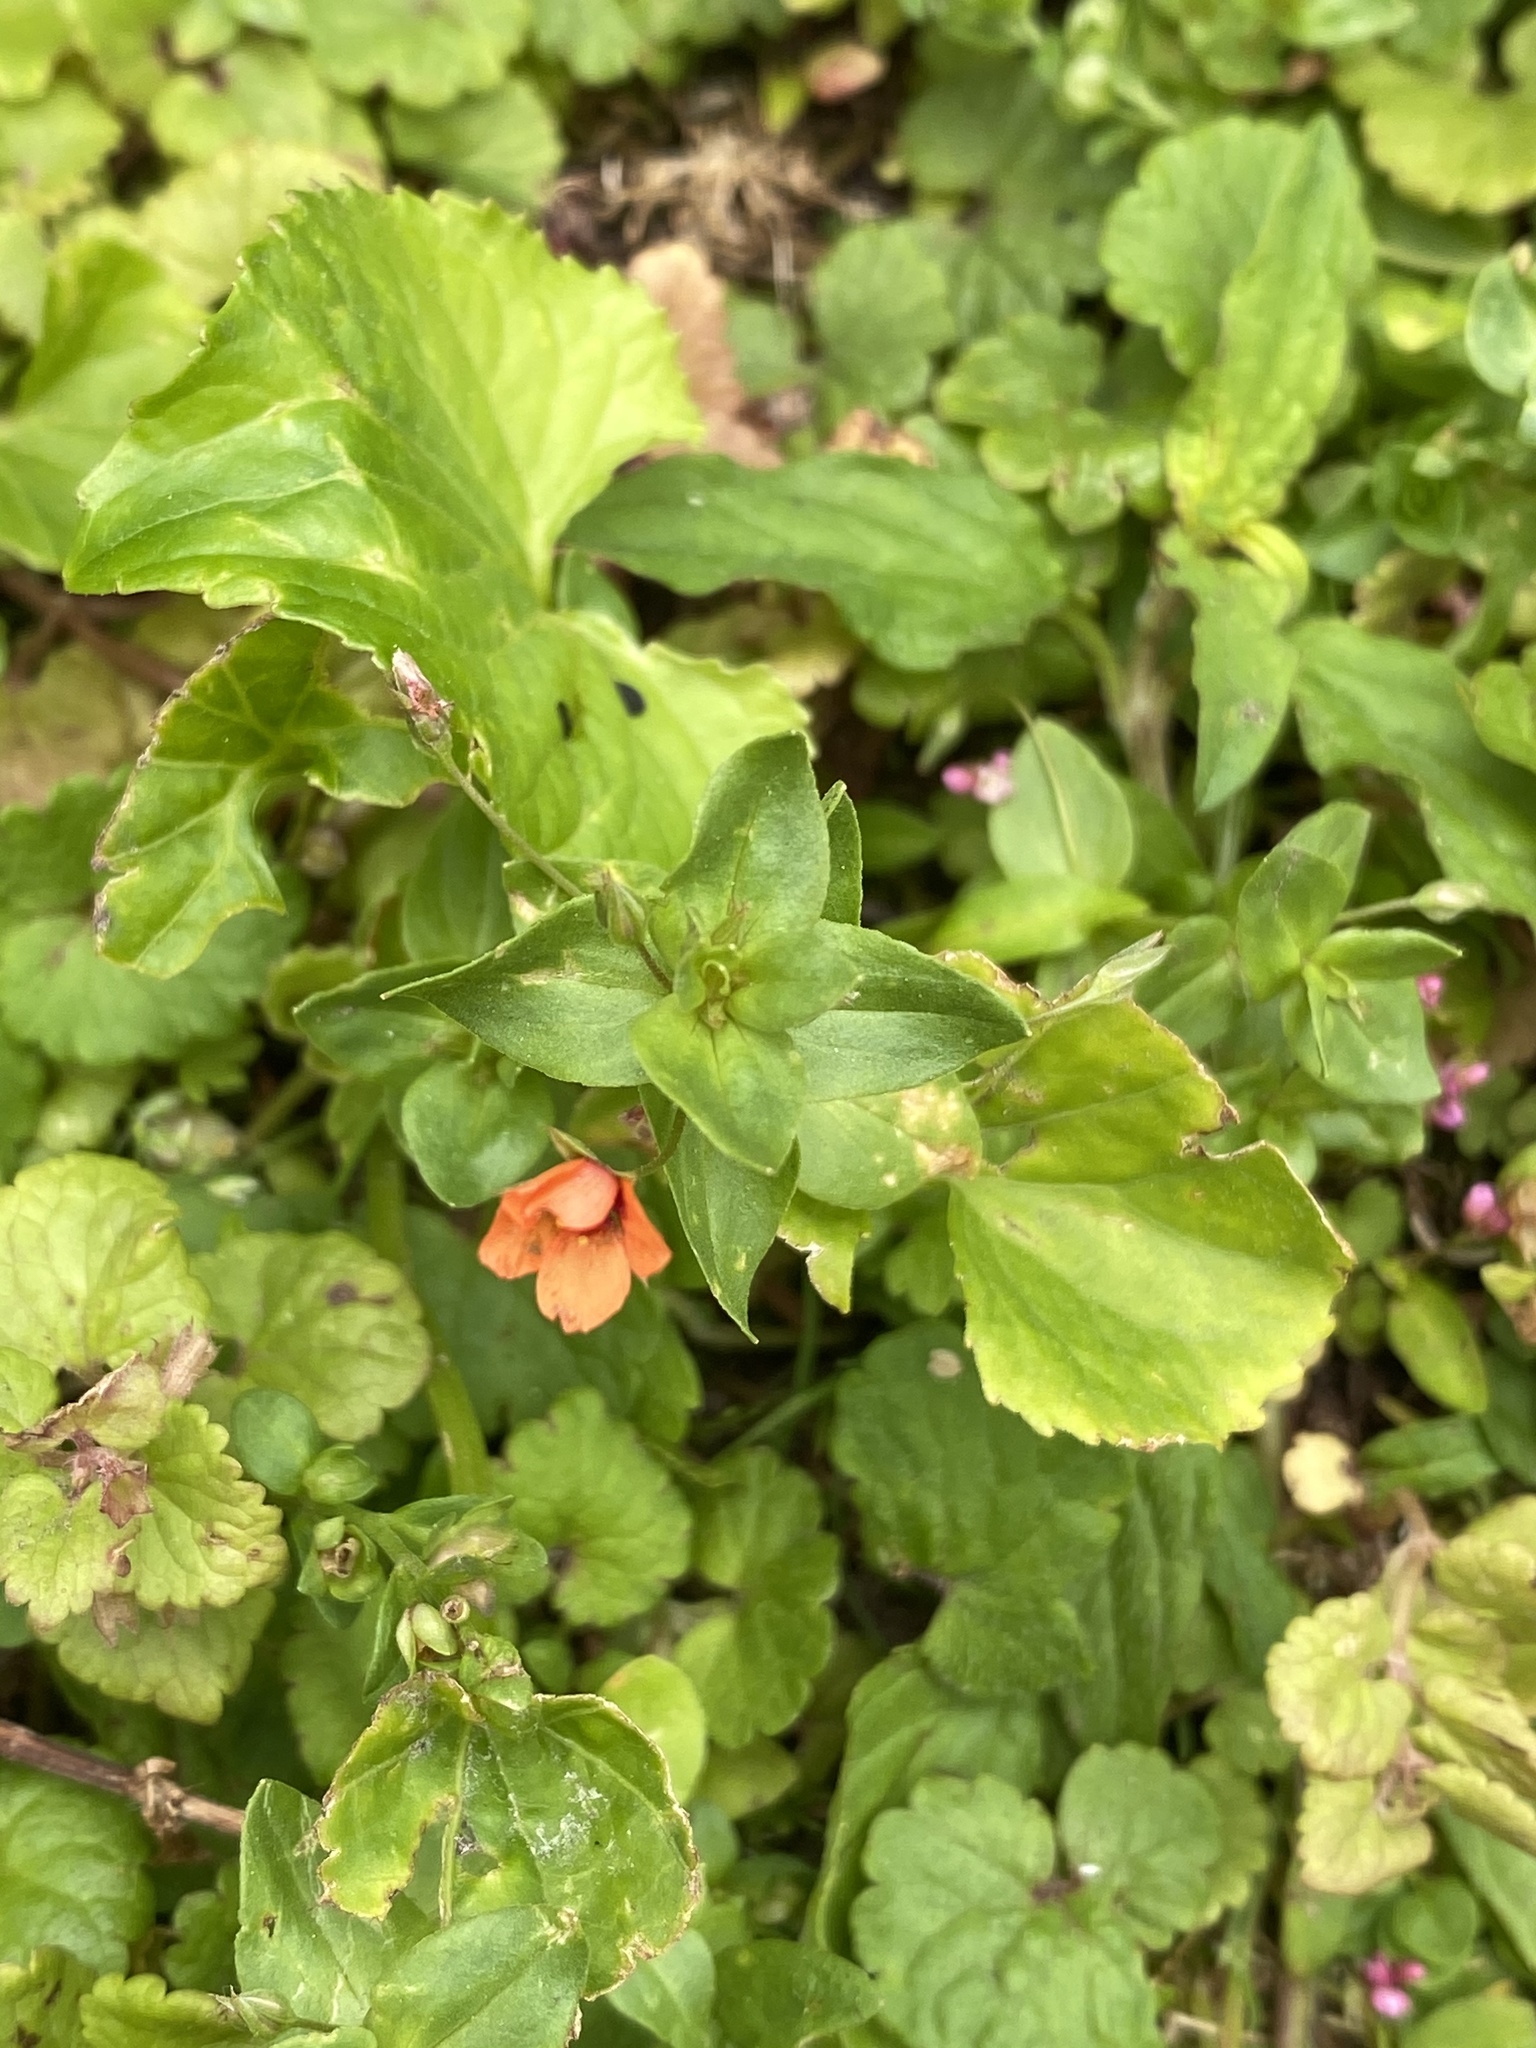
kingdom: Plantae
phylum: Tracheophyta
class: Magnoliopsida
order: Ericales
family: Primulaceae
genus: Lysimachia
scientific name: Lysimachia arvensis
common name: Scarlet pimpernel
